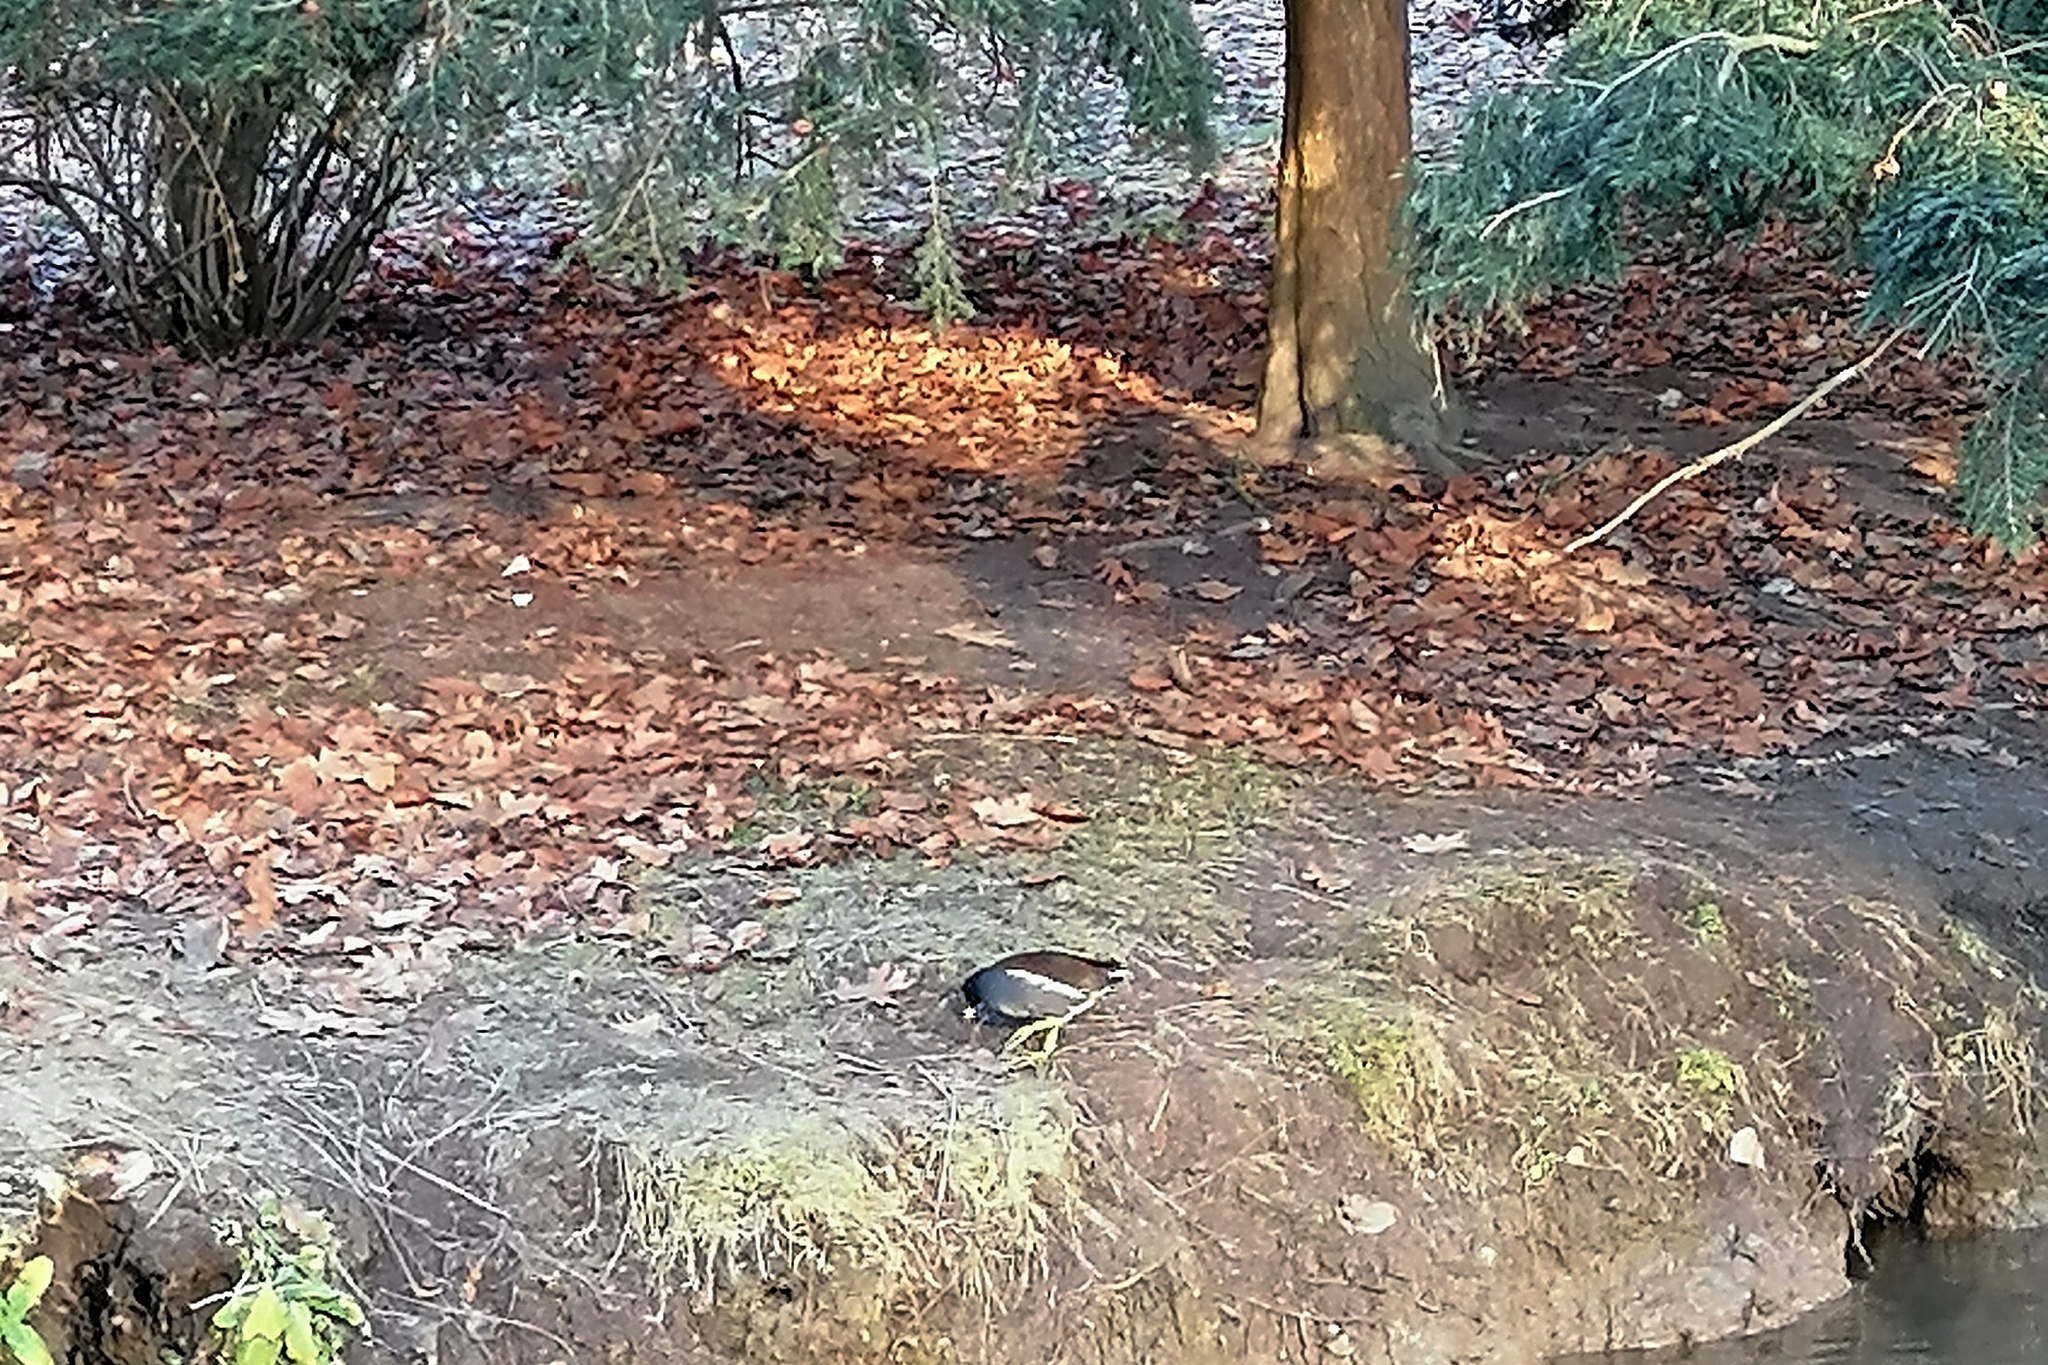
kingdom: Animalia
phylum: Chordata
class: Aves
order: Gruiformes
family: Rallidae
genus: Gallinula
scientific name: Gallinula chloropus
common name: Common moorhen
